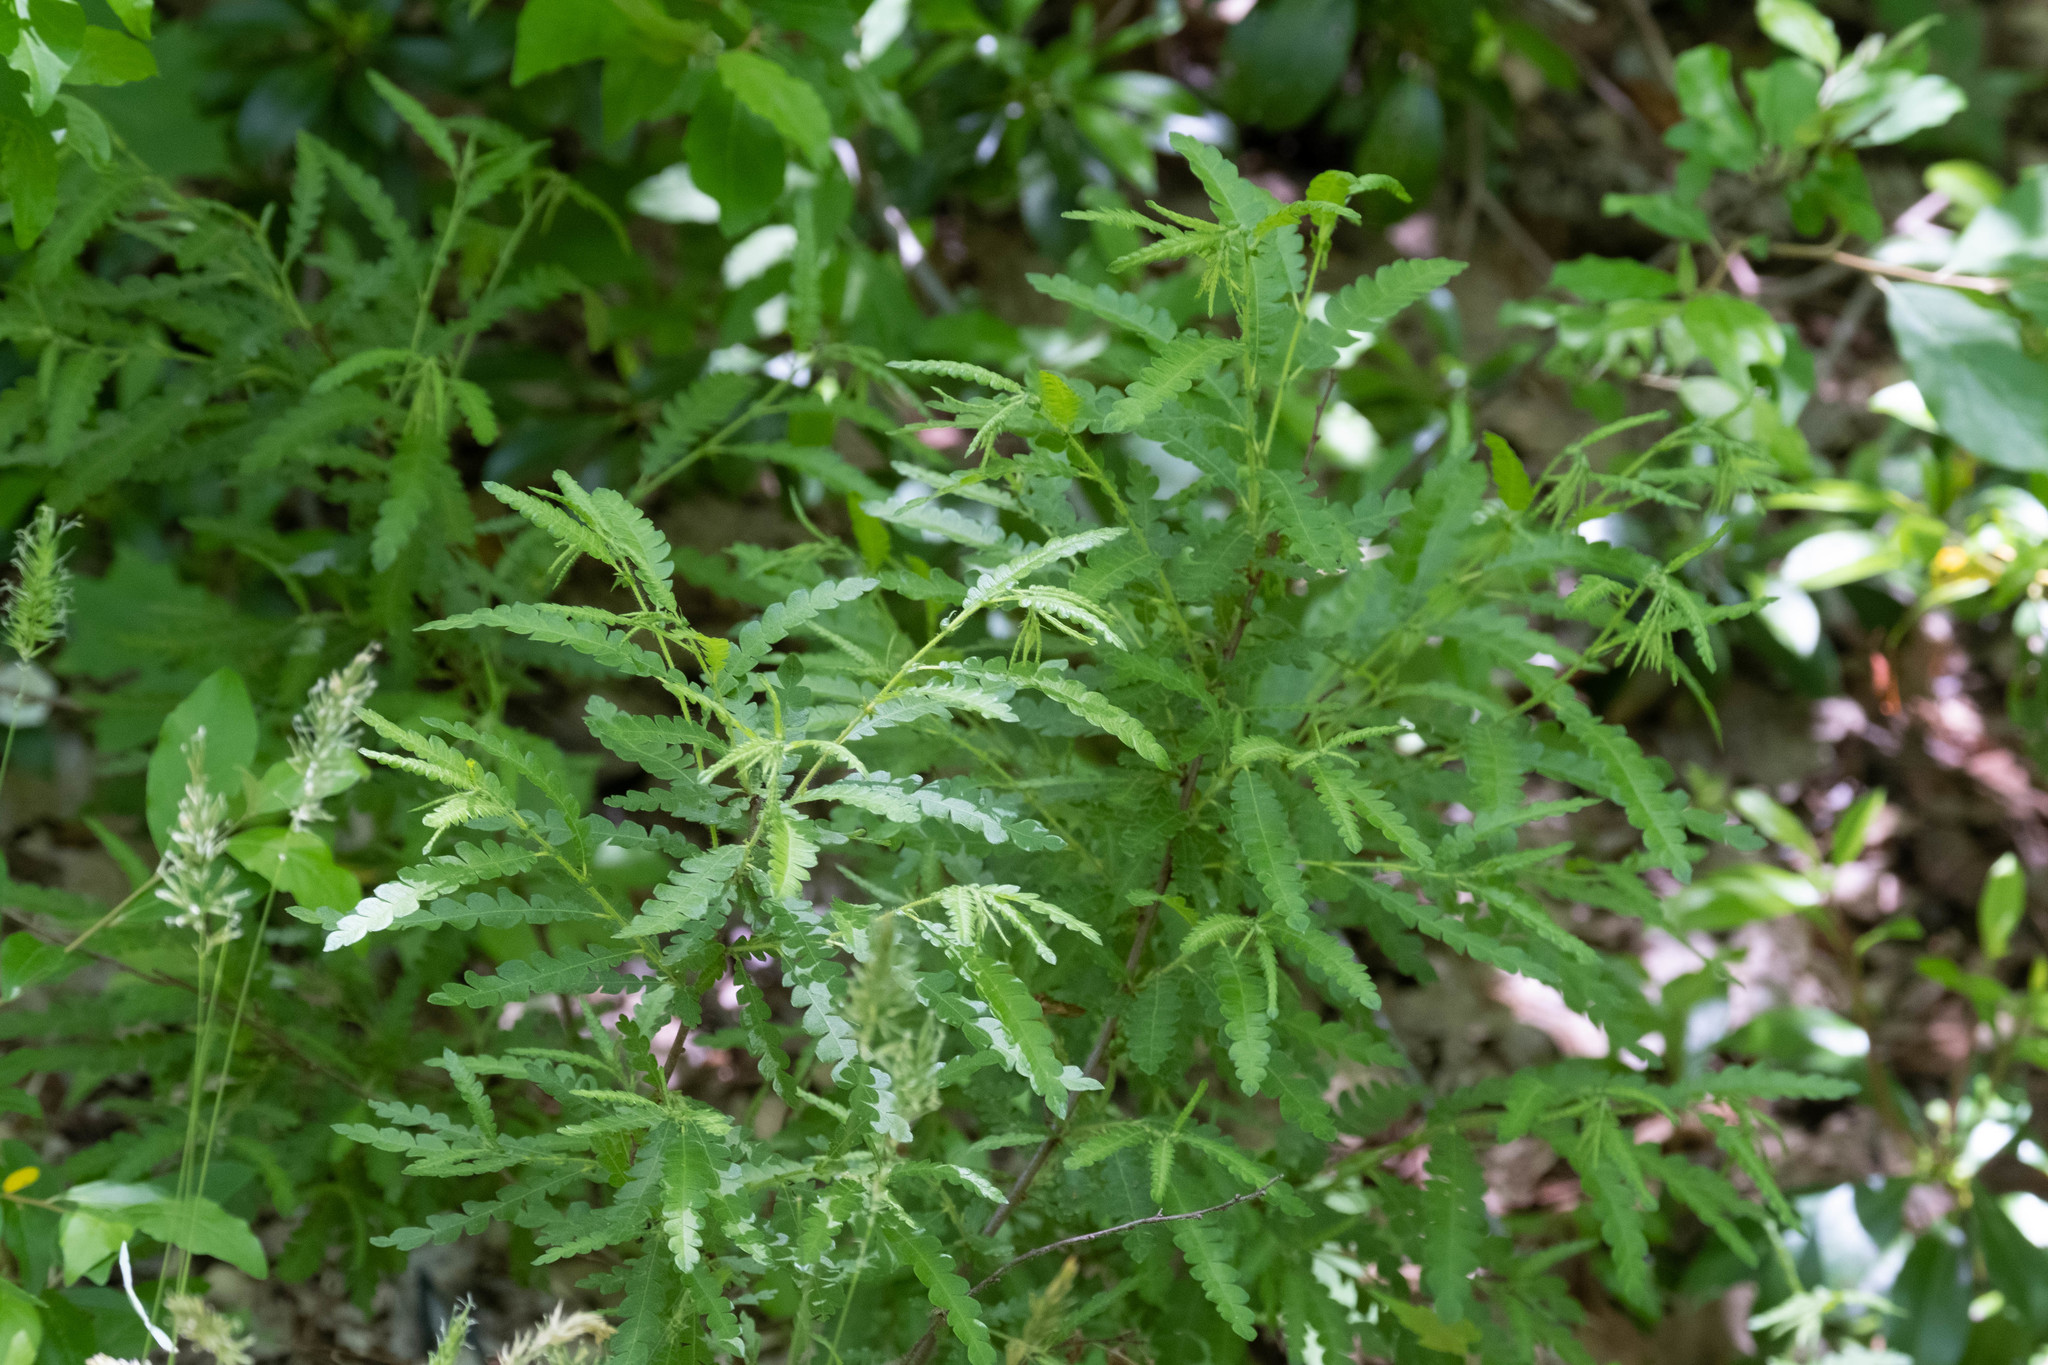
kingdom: Plantae
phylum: Tracheophyta
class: Magnoliopsida
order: Fagales
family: Myricaceae
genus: Comptonia
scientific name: Comptonia peregrina
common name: Sweet-fern
